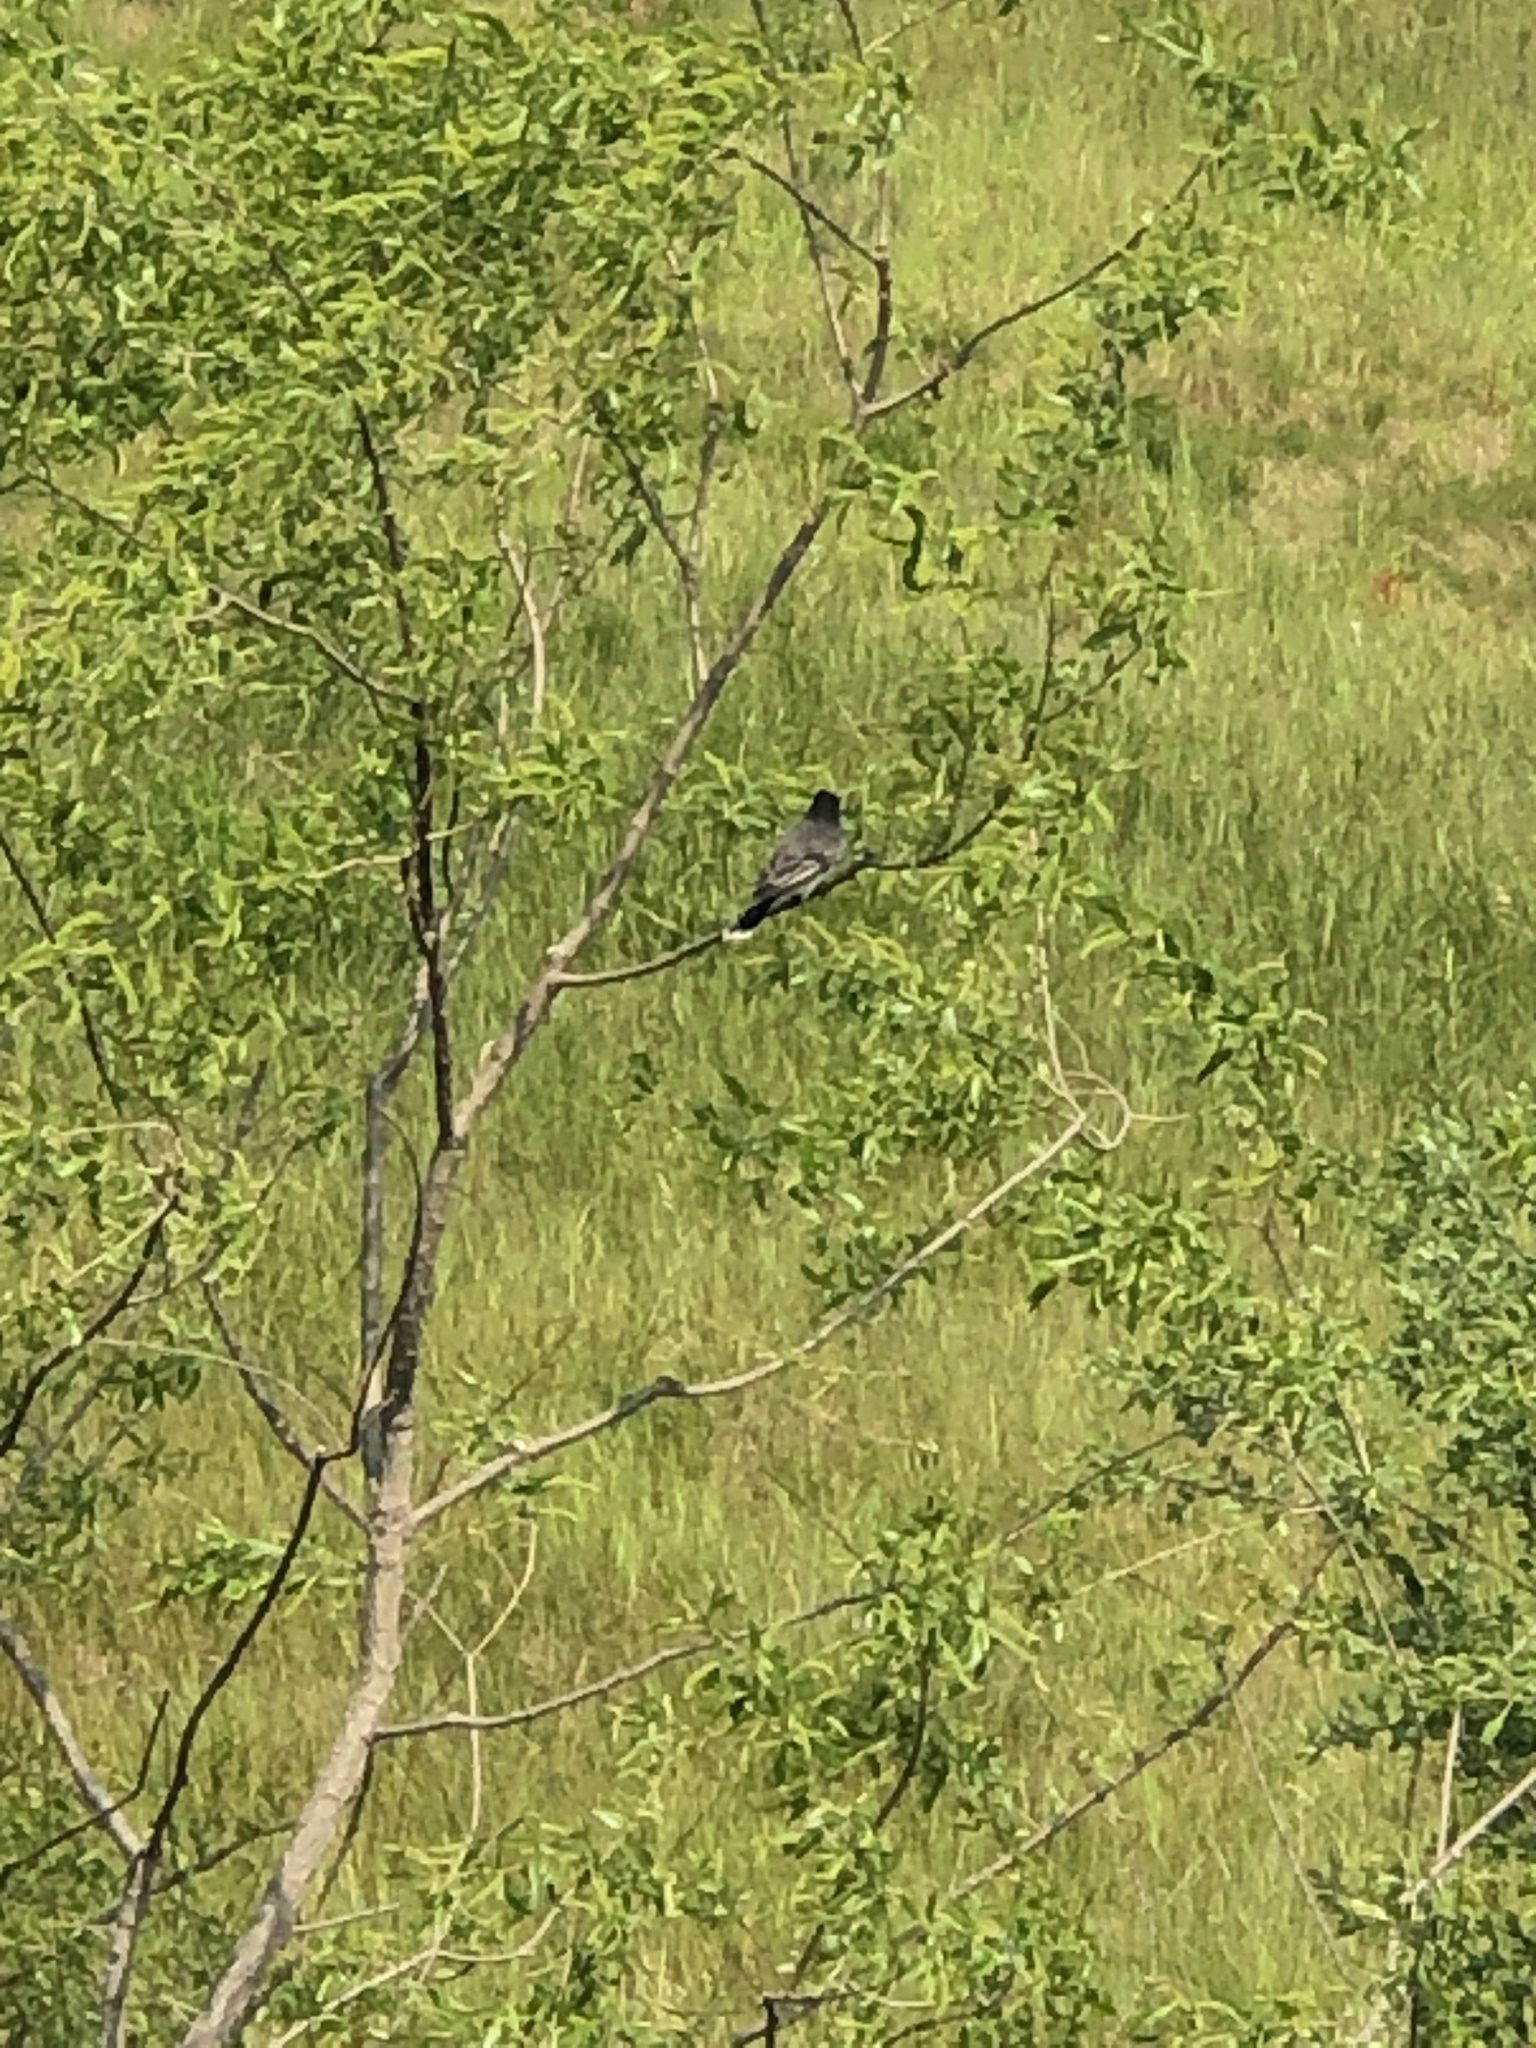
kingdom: Animalia
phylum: Chordata
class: Aves
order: Passeriformes
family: Tyrannidae
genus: Tyrannus
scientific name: Tyrannus tyrannus
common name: Eastern kingbird
